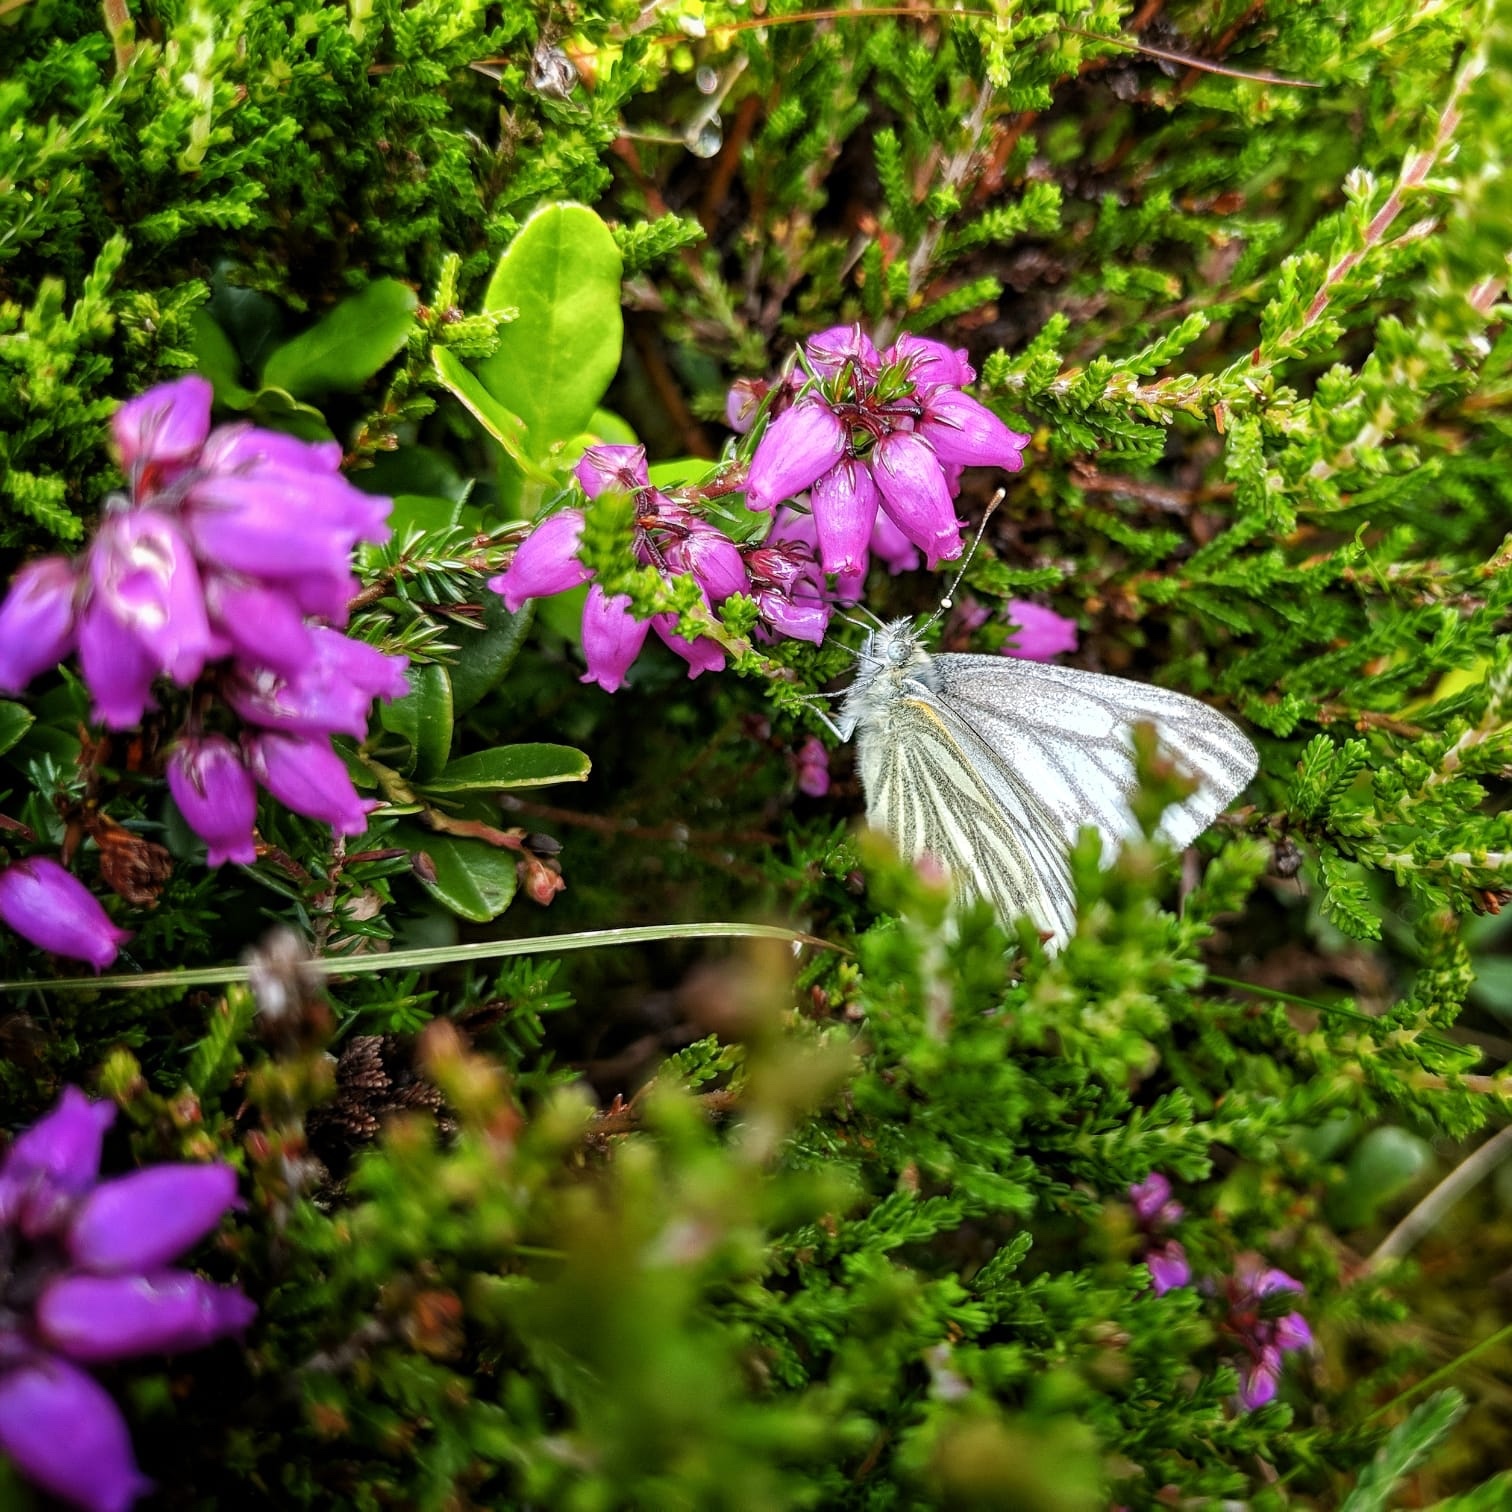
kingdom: Animalia
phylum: Arthropoda
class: Insecta
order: Lepidoptera
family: Pieridae
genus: Pieris
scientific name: Pieris napi
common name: Green-veined white
